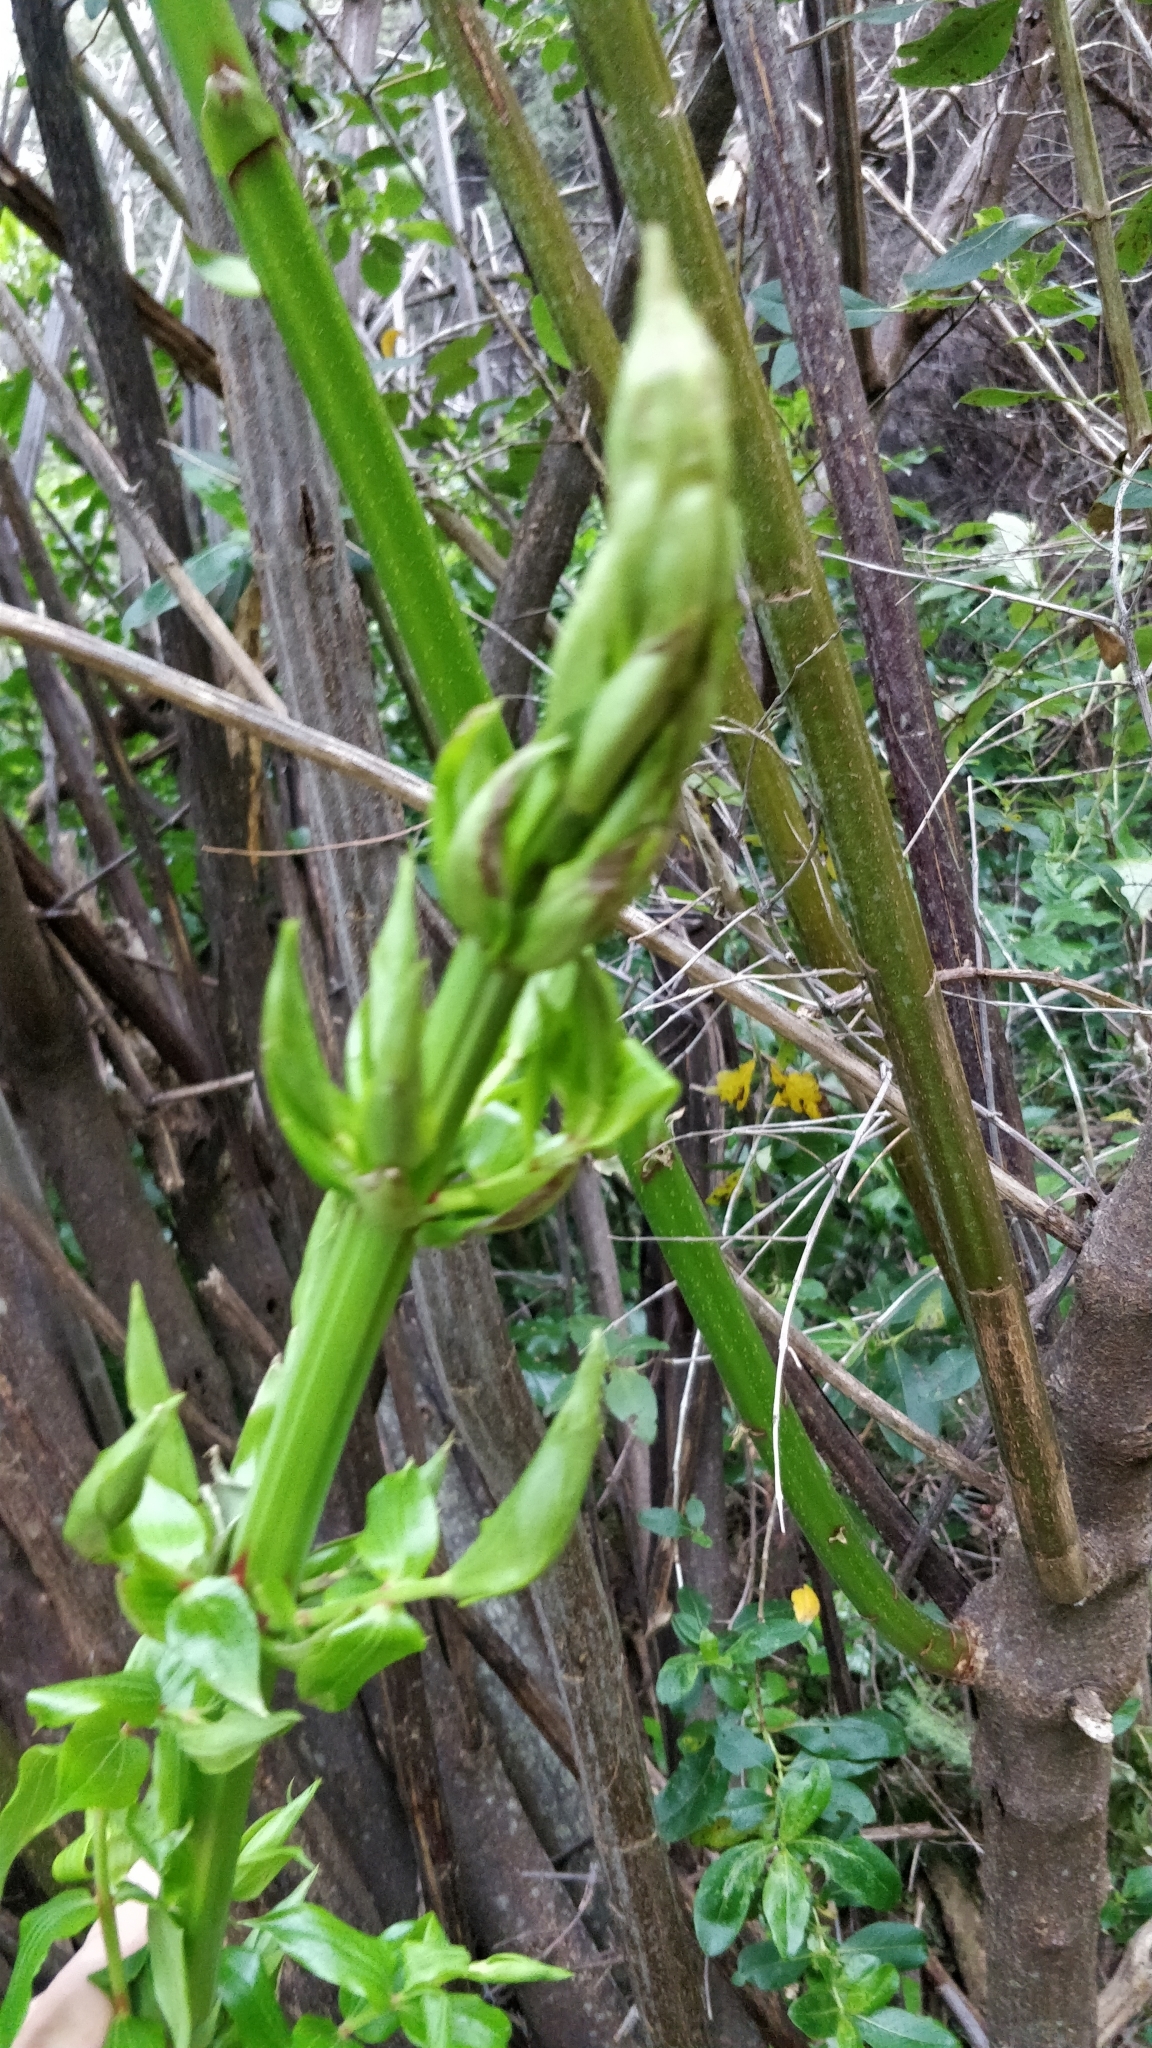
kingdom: Plantae
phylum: Tracheophyta
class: Magnoliopsida
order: Cucurbitales
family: Coriariaceae
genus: Coriaria
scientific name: Coriaria arborea
